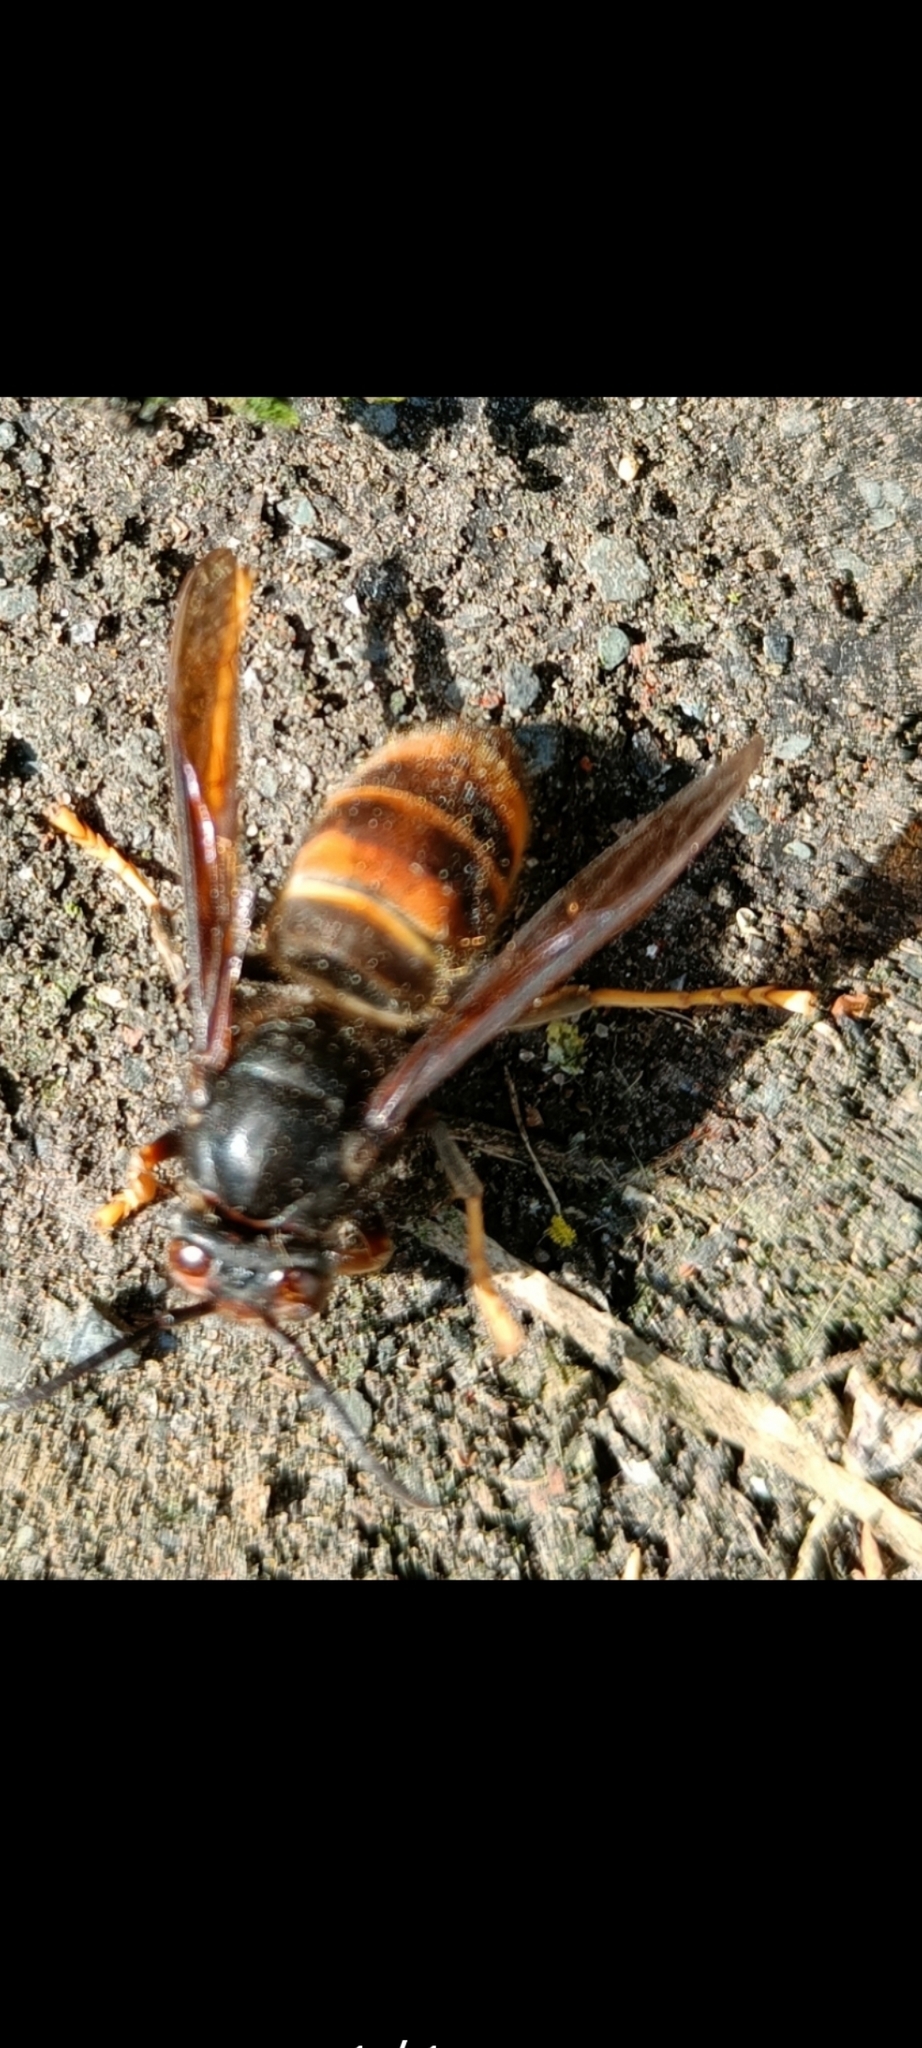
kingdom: Animalia
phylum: Arthropoda
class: Insecta
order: Hymenoptera
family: Vespidae
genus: Vespa
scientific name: Vespa velutina
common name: Asian hornet
